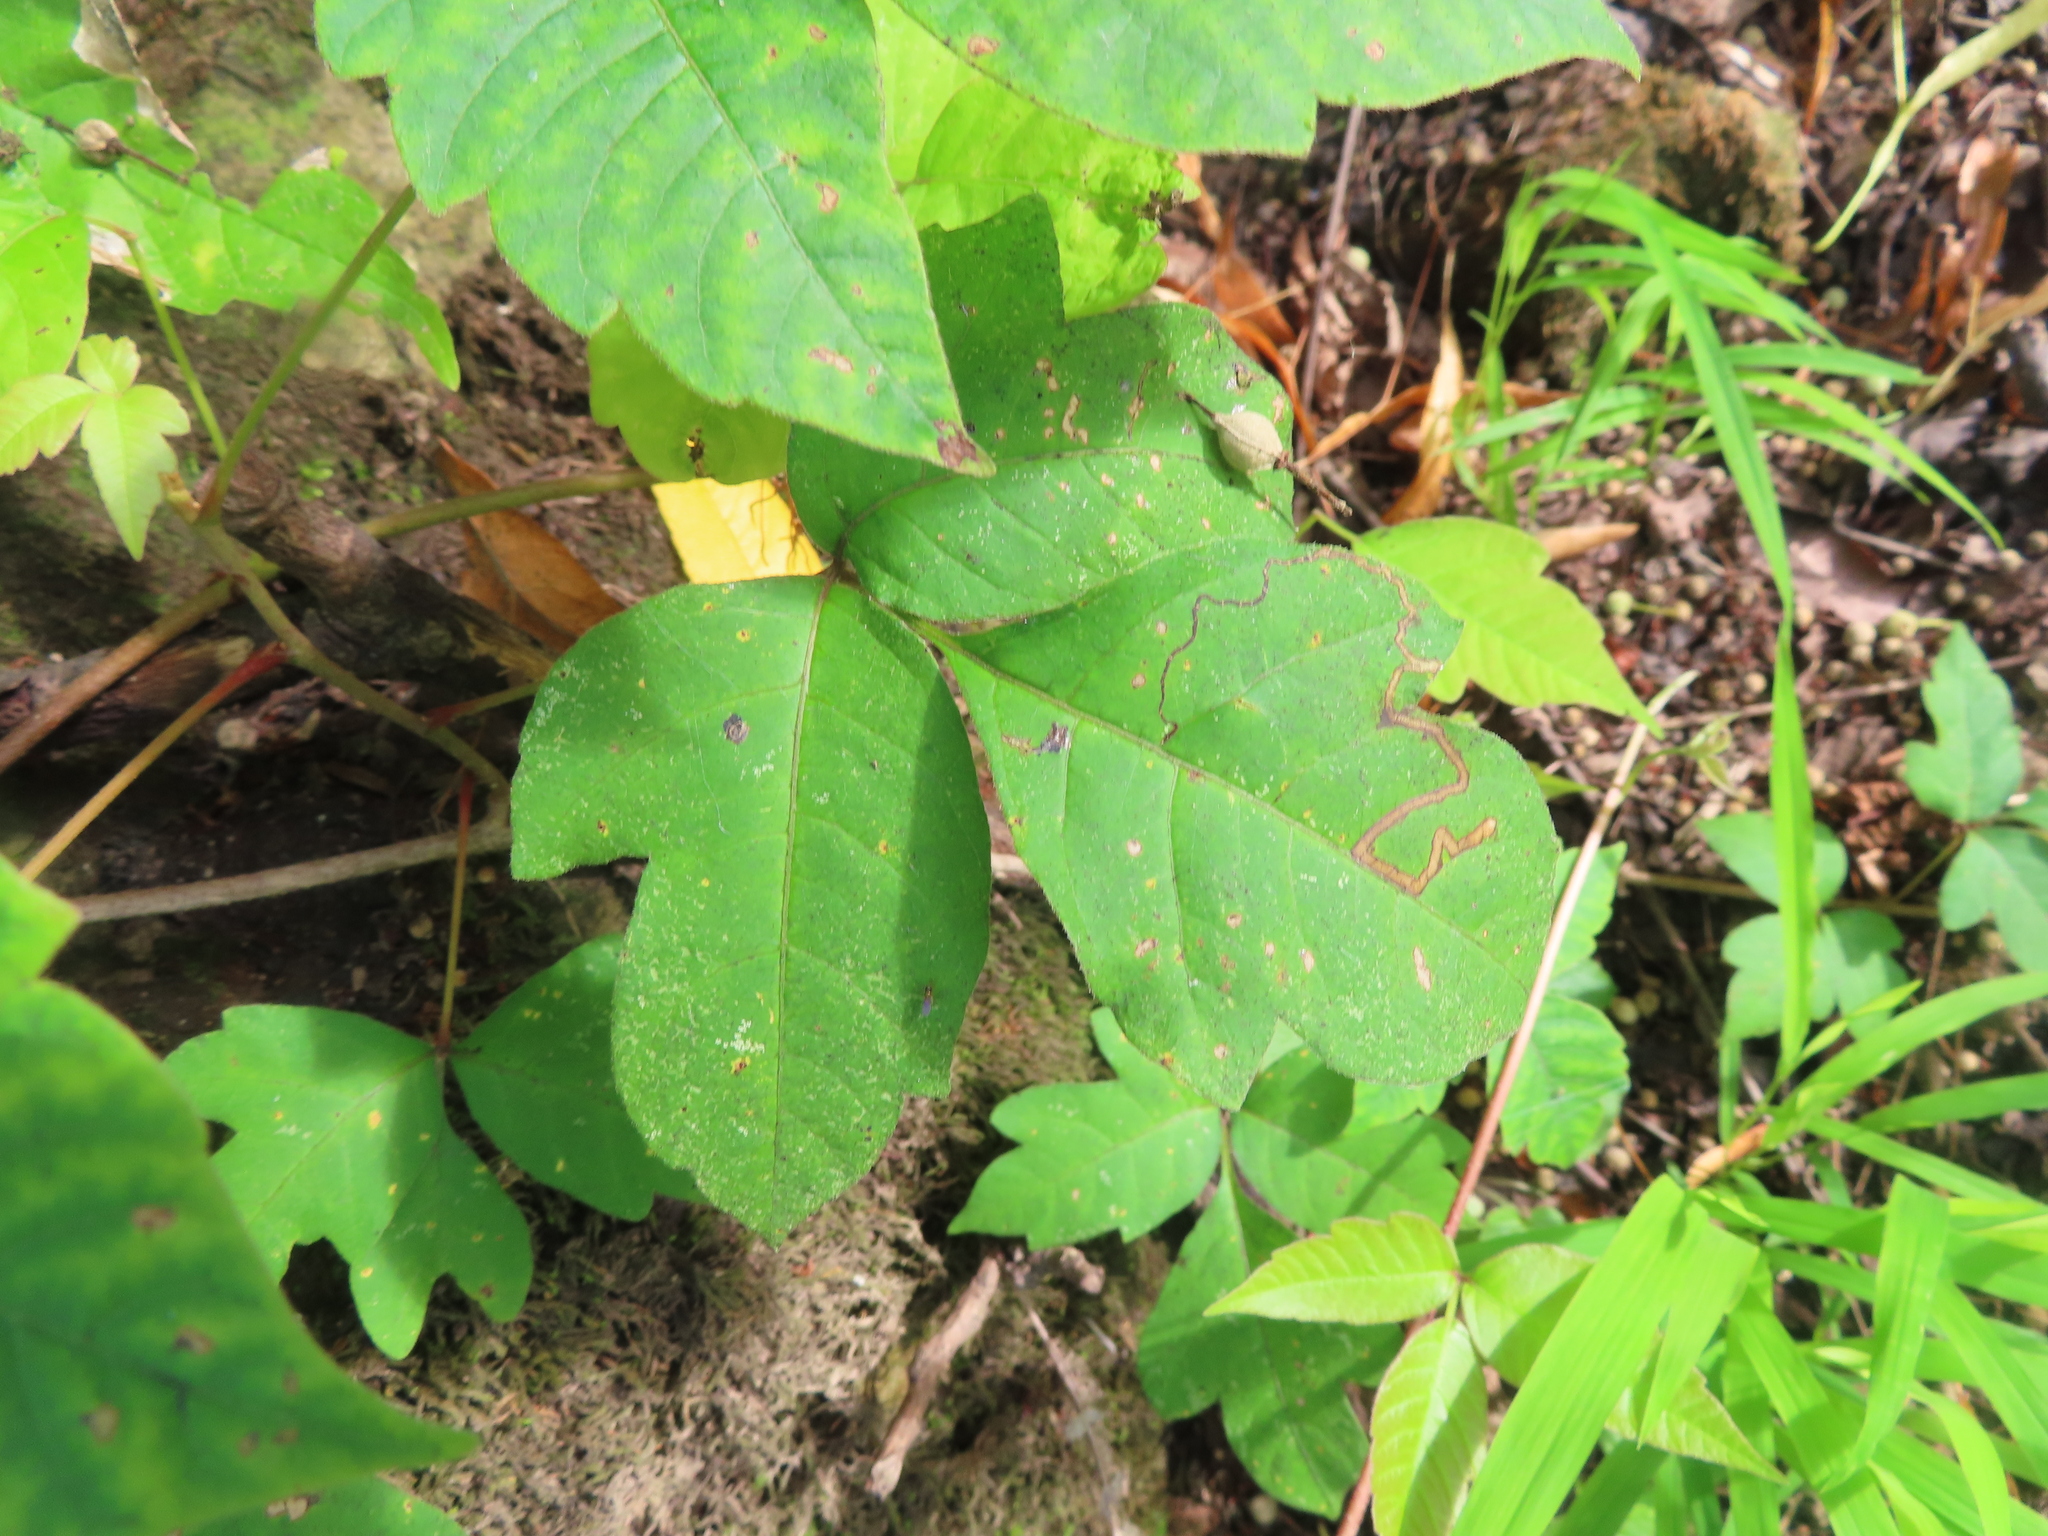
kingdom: Animalia
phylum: Arthropoda
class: Insecta
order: Lepidoptera
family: Nepticulidae
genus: Stigmella
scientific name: Stigmella rhoifoliella
